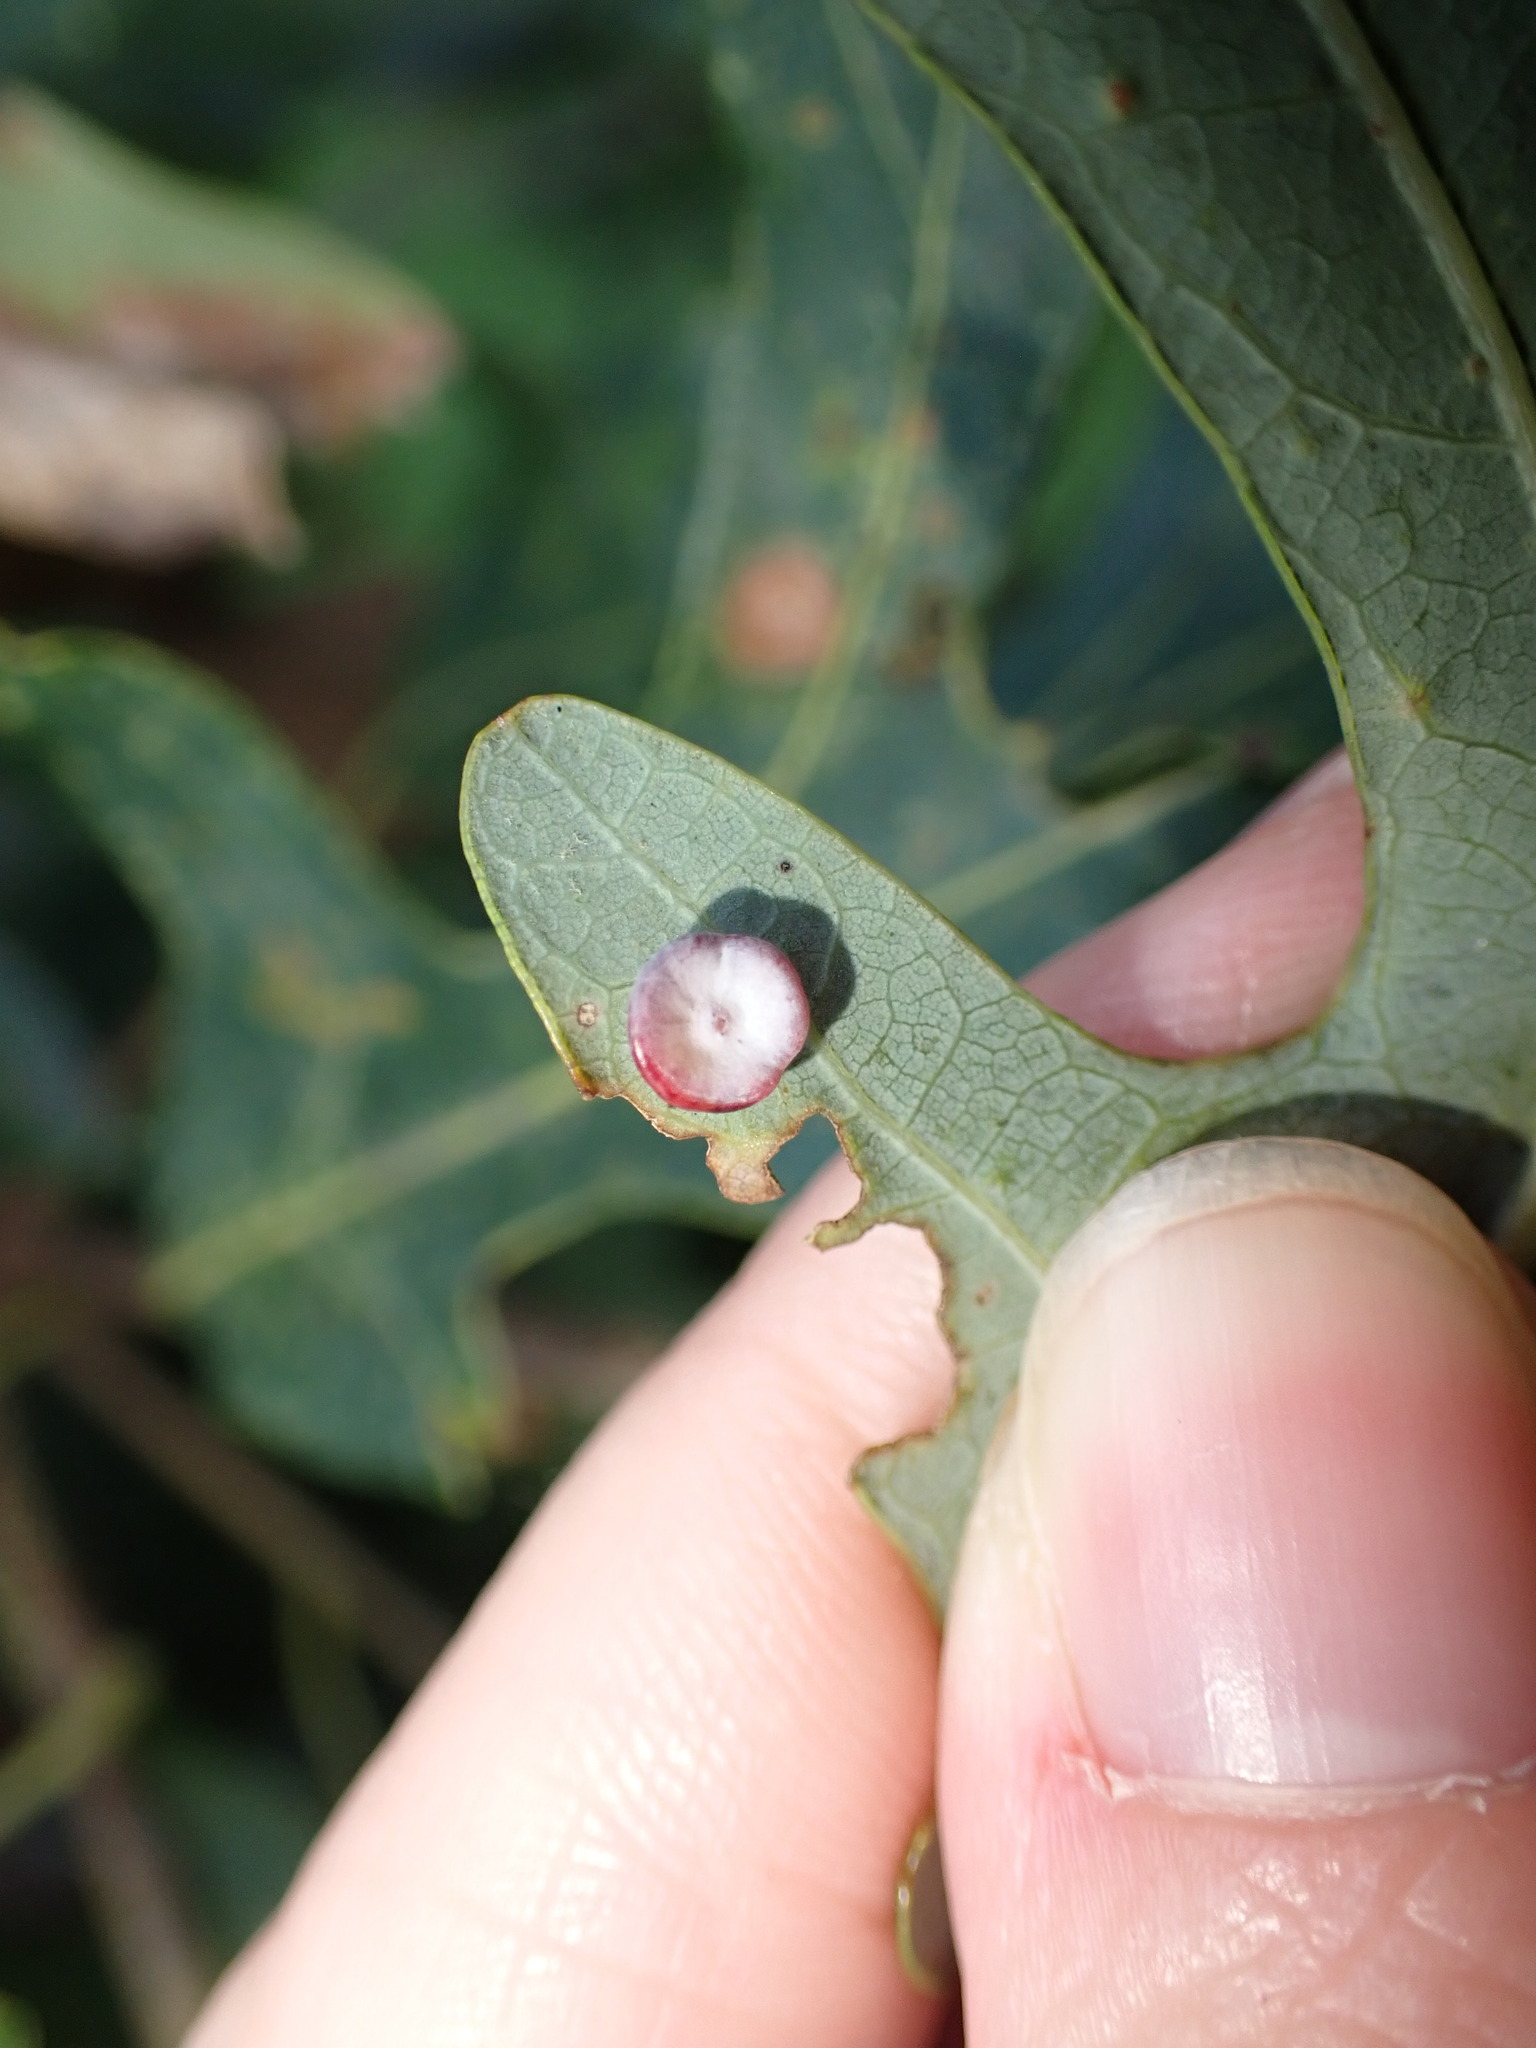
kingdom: Animalia
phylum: Arthropoda
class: Insecta
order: Hymenoptera
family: Cynipidae
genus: Phylloteras
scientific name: Phylloteras poculum
